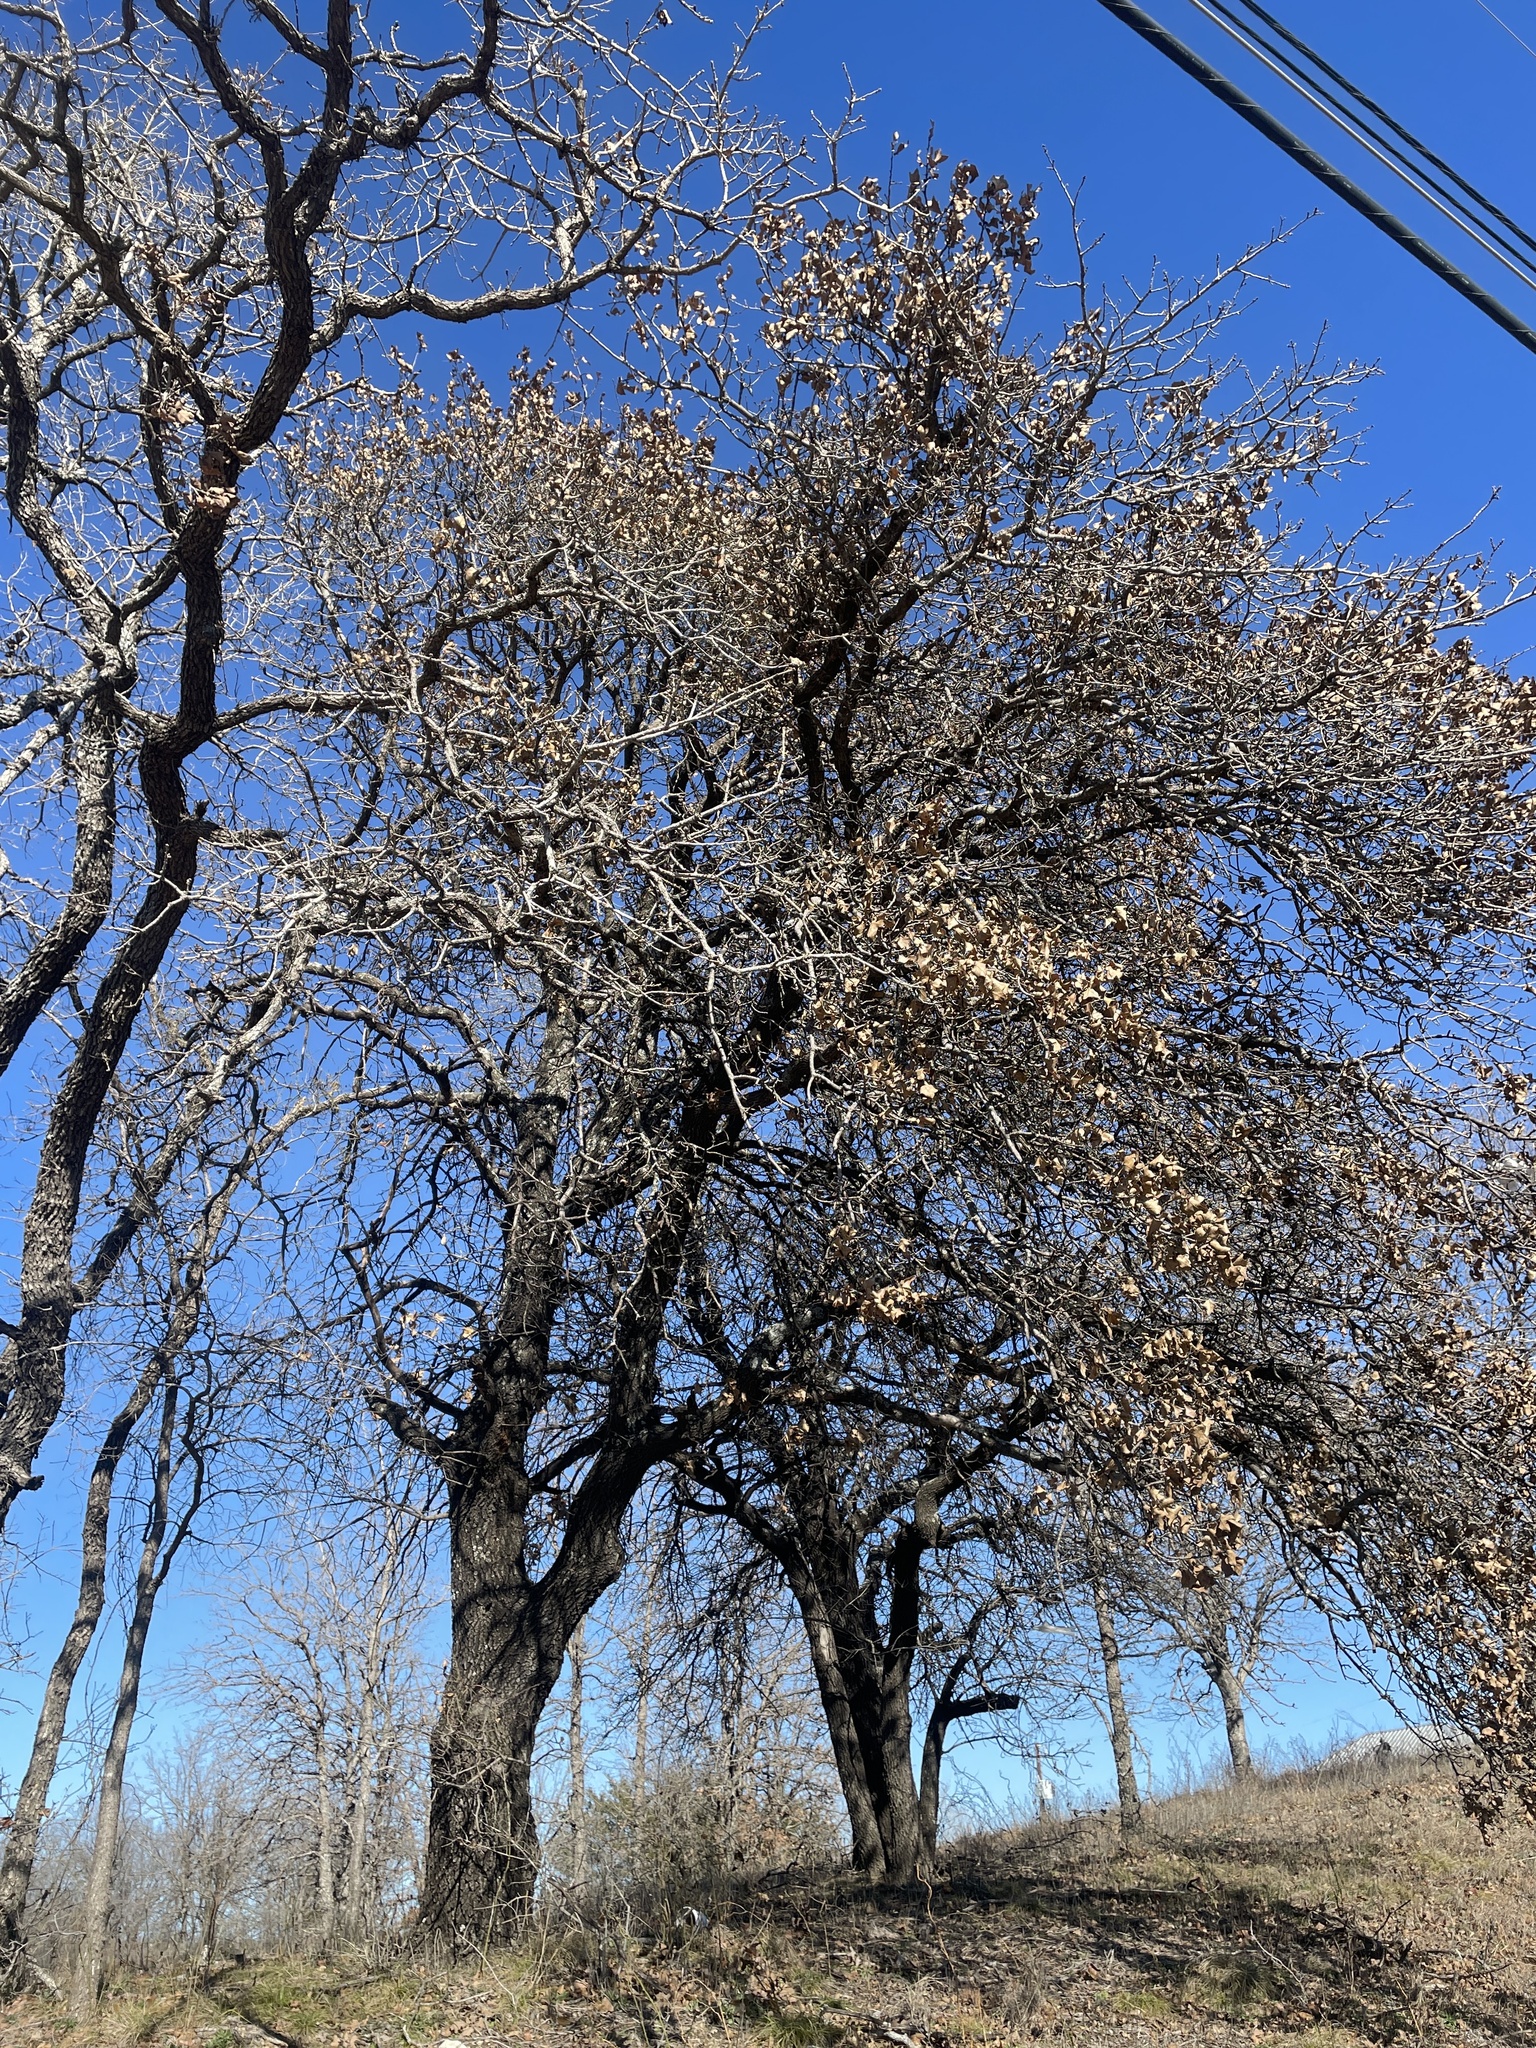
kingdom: Plantae
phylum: Tracheophyta
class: Magnoliopsida
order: Fagales
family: Fagaceae
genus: Quercus
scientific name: Quercus marilandica
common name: Blackjack oak
